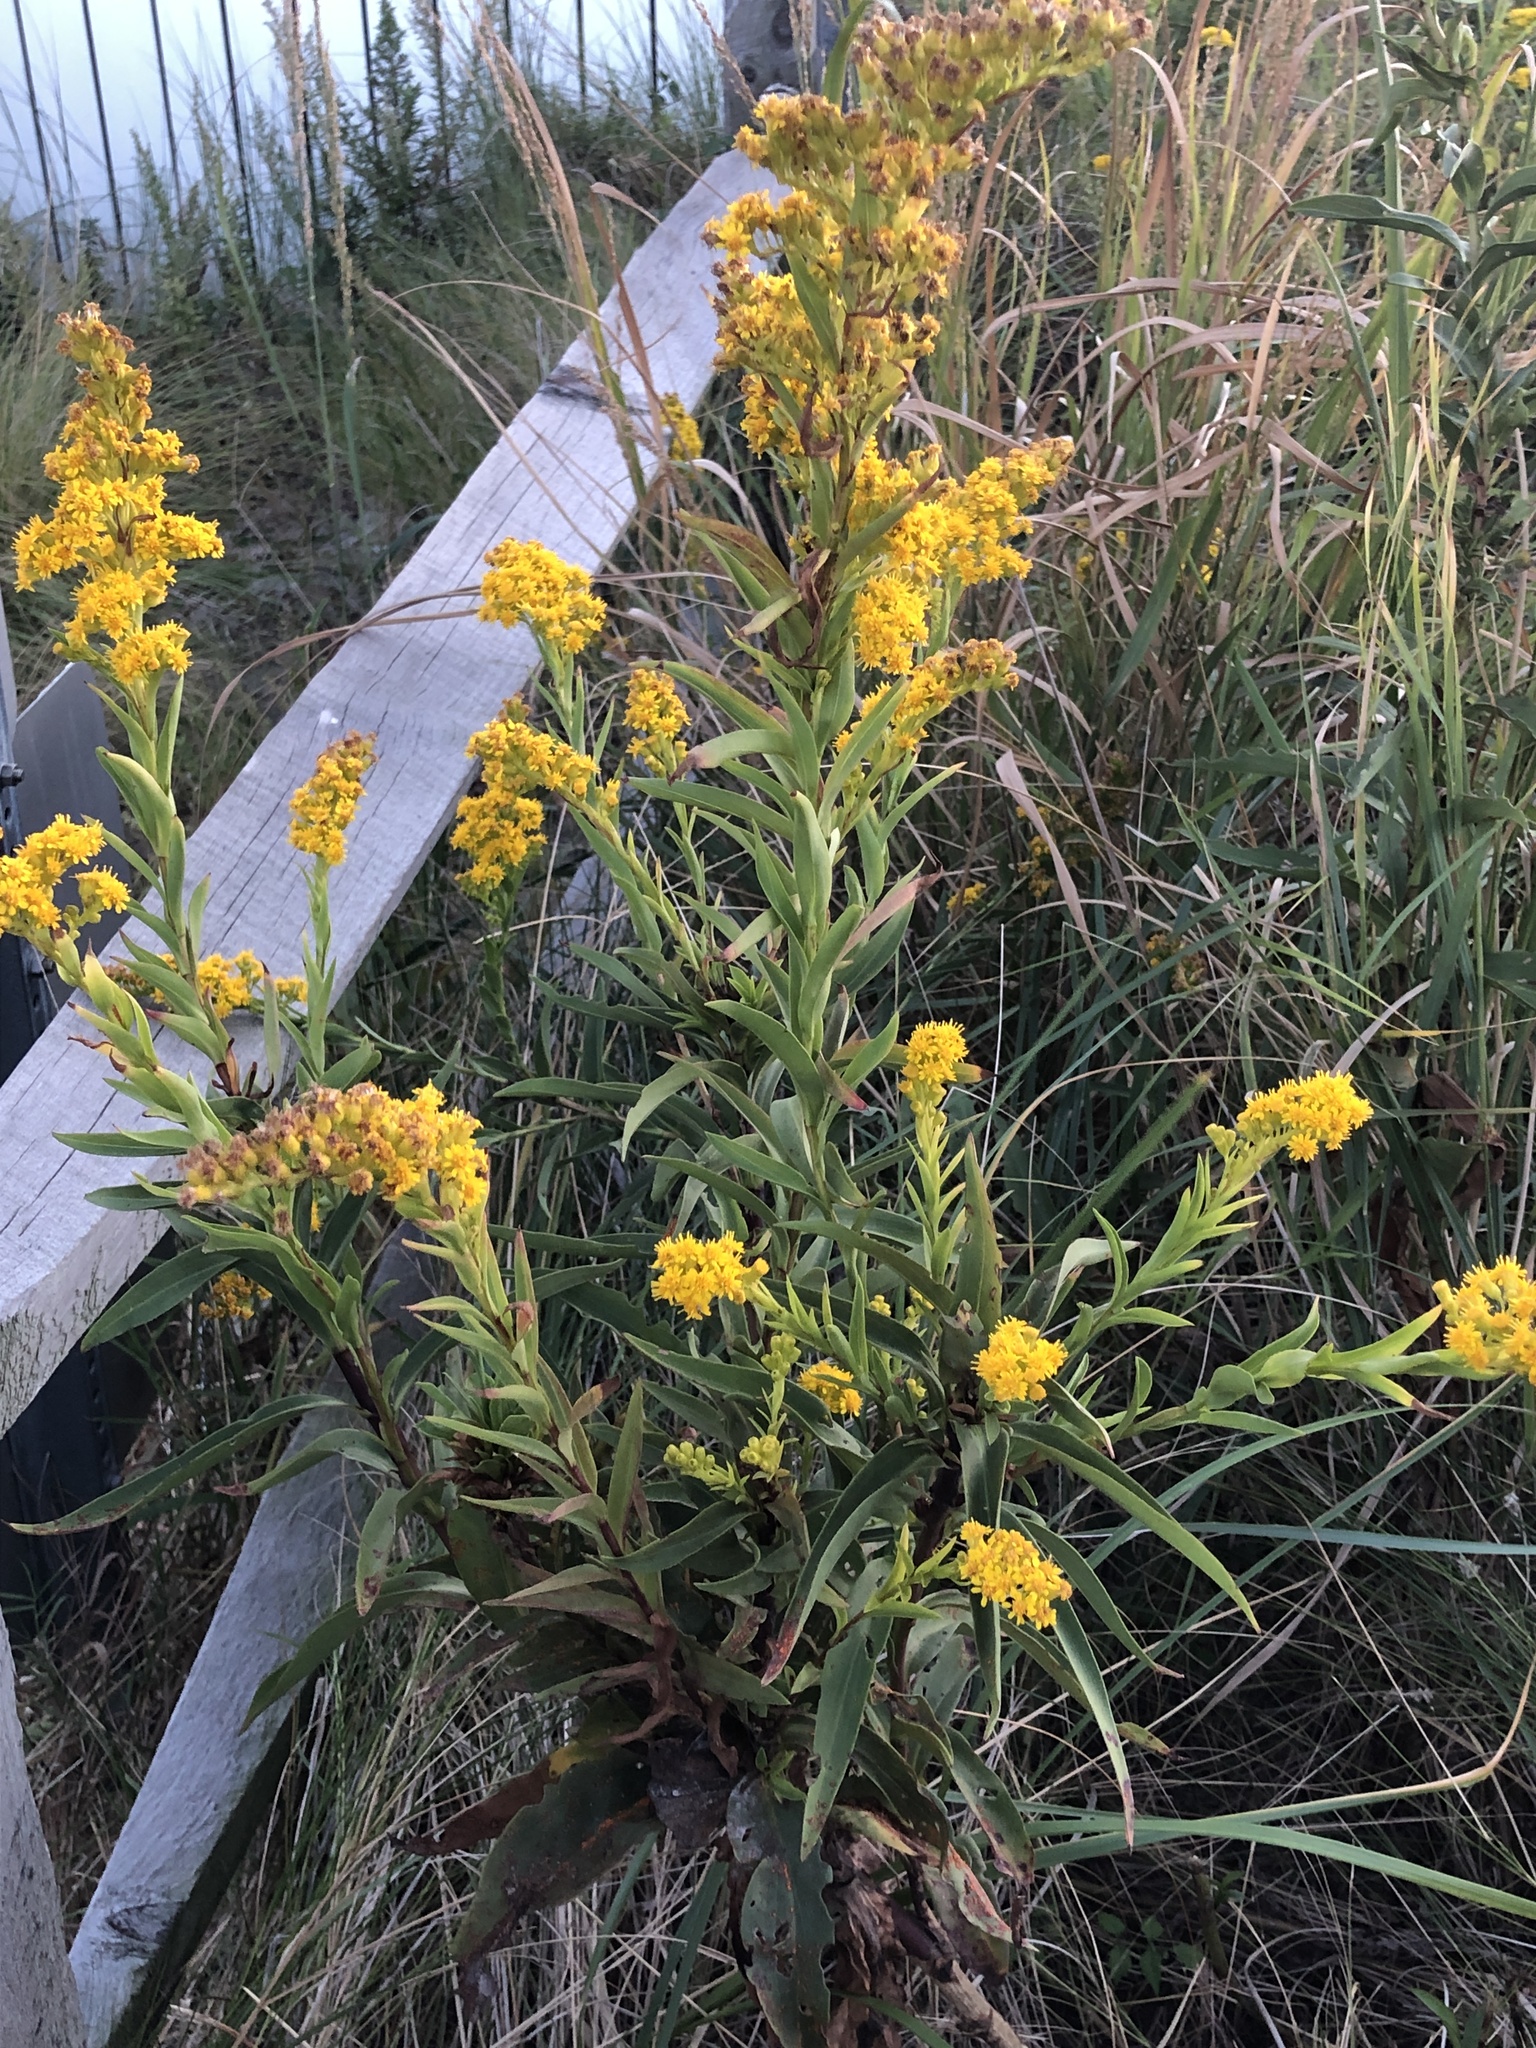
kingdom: Plantae
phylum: Tracheophyta
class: Magnoliopsida
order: Asterales
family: Asteraceae
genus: Solidago
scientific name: Solidago sempervirens
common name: Salt-marsh goldenrod
